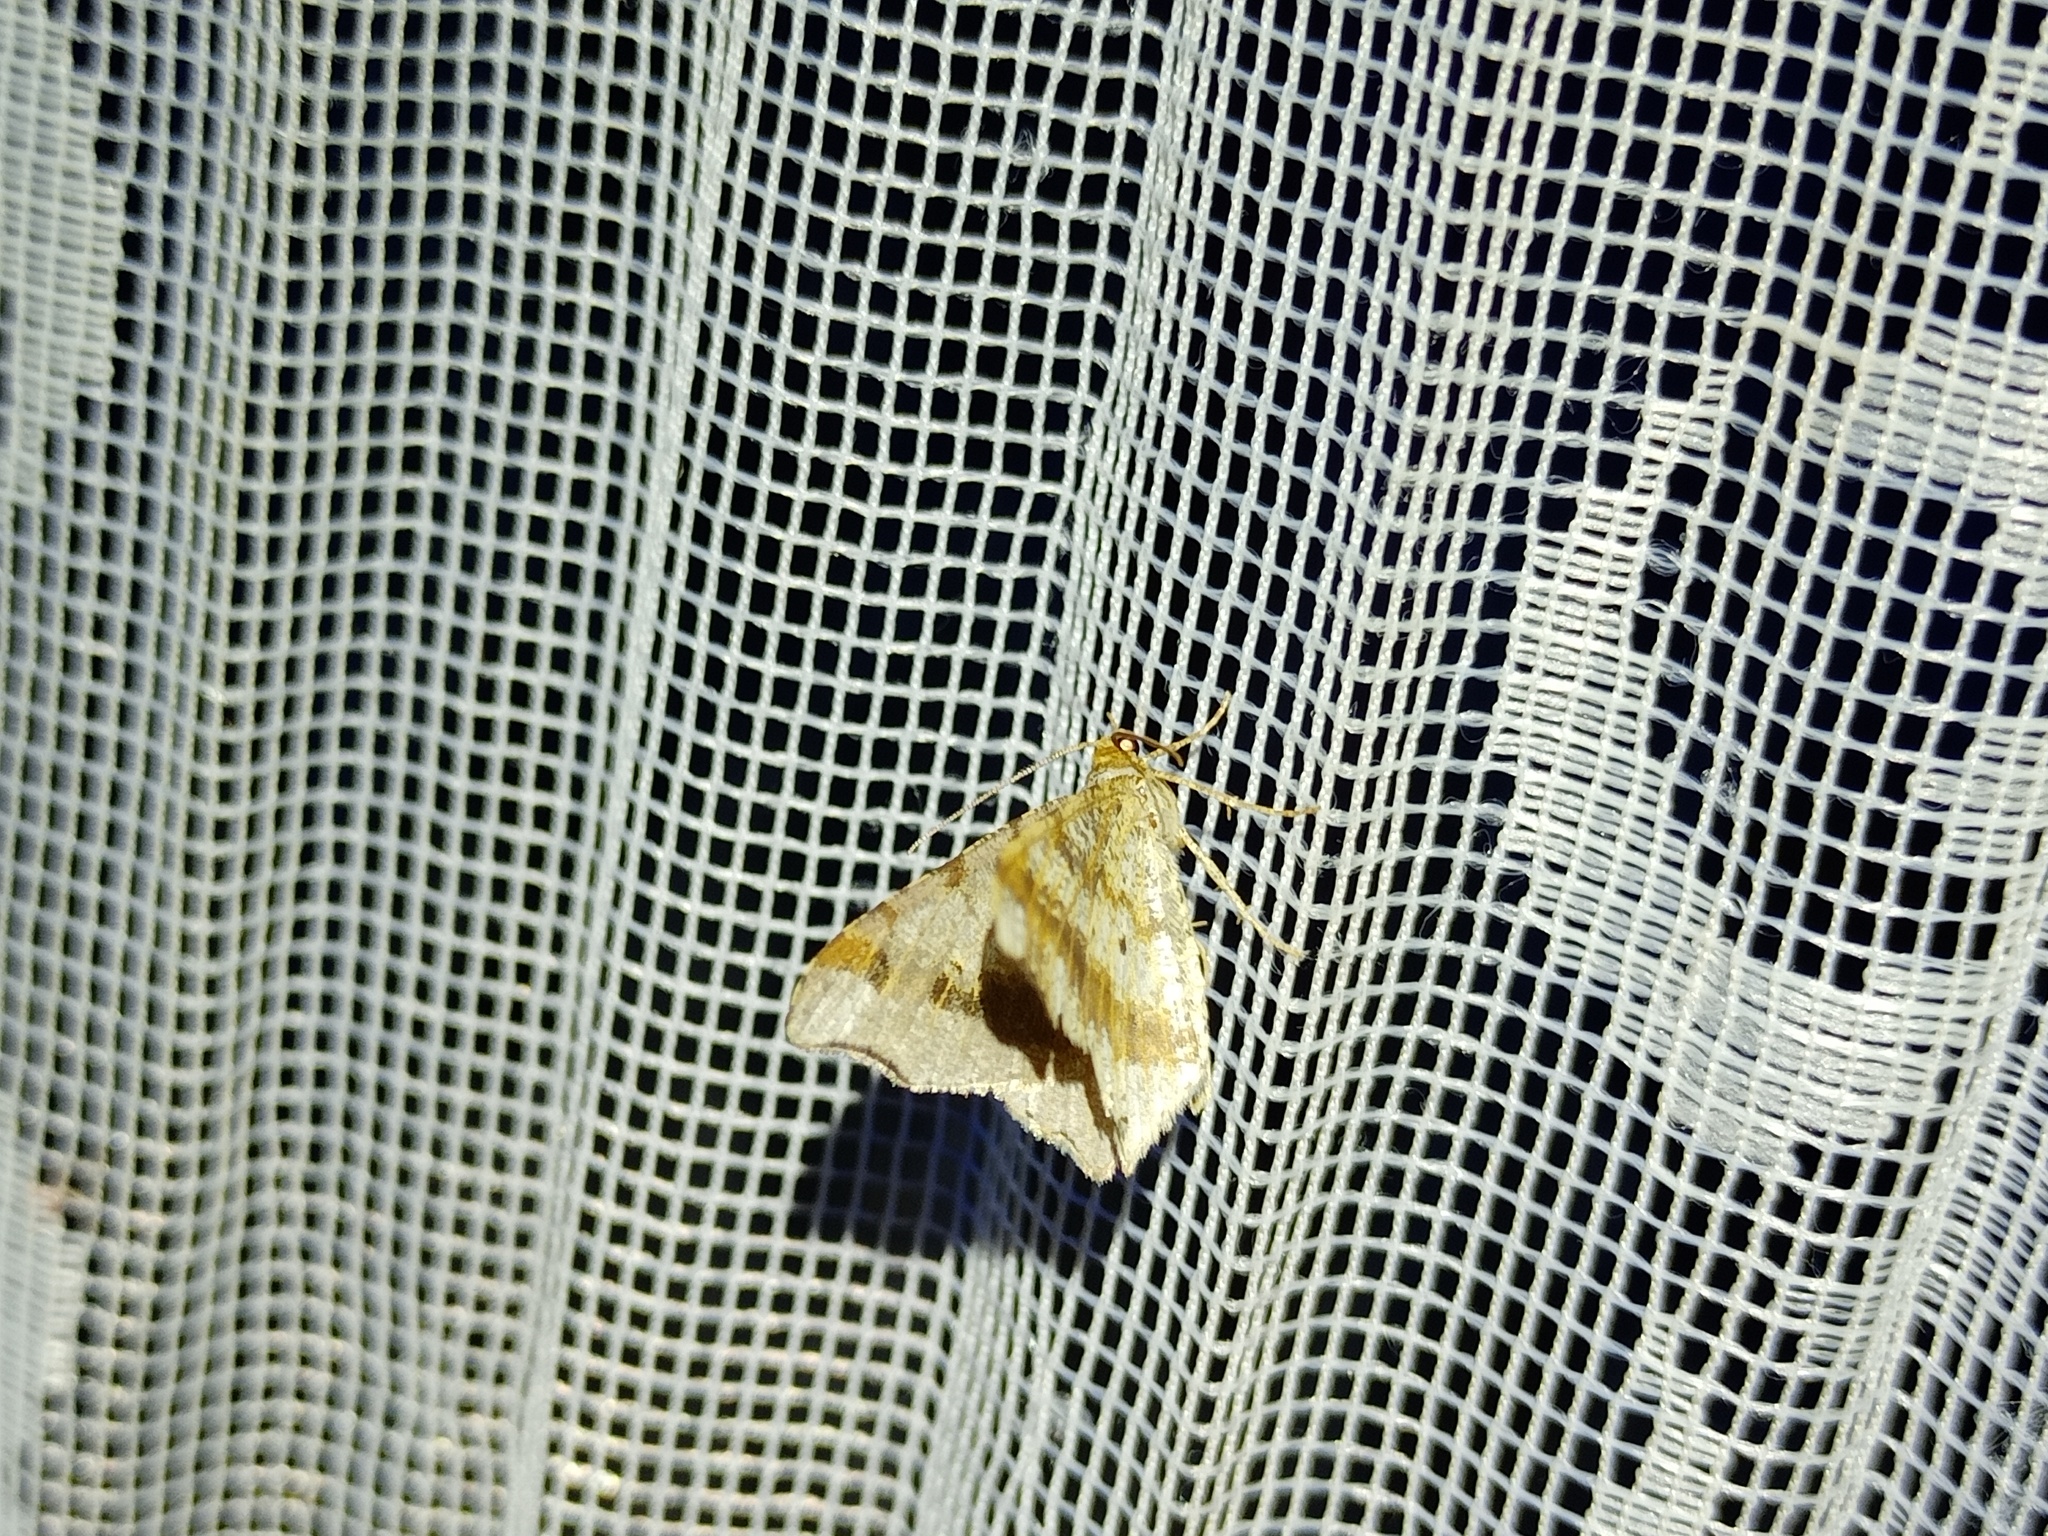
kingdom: Animalia
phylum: Arthropoda
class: Insecta
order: Lepidoptera
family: Geometridae
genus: Macaria
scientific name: Macaria alternata
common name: Sharp-angled peacock
